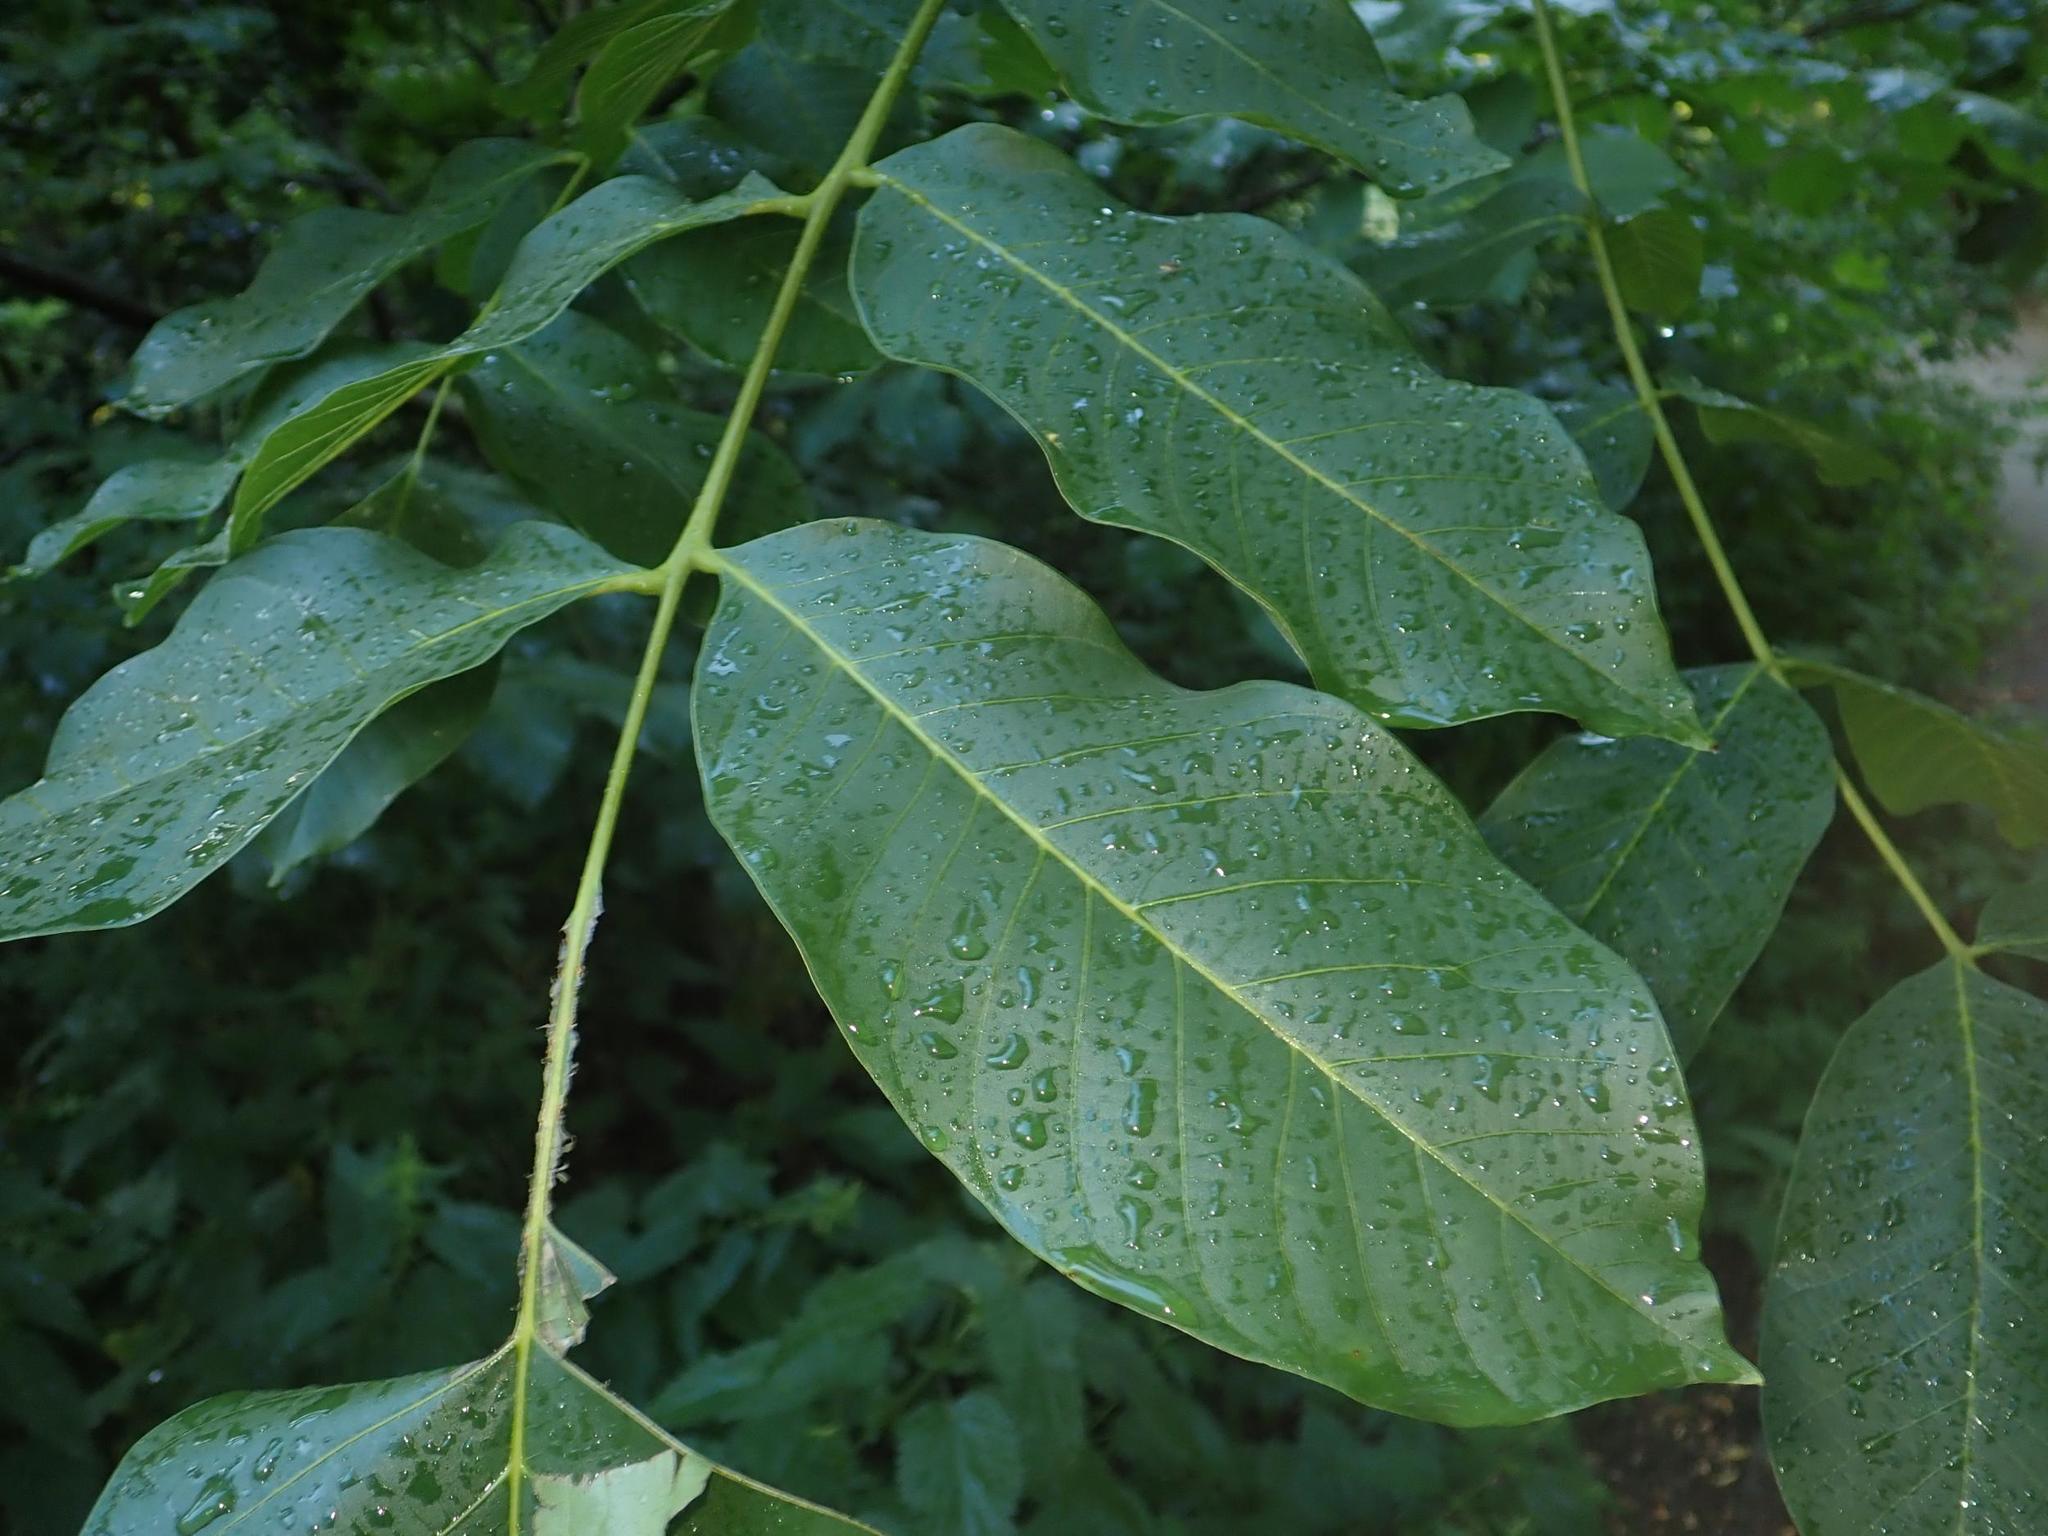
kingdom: Plantae
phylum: Tracheophyta
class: Magnoliopsida
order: Fagales
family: Juglandaceae
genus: Juglans
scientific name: Juglans regia
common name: Walnut
